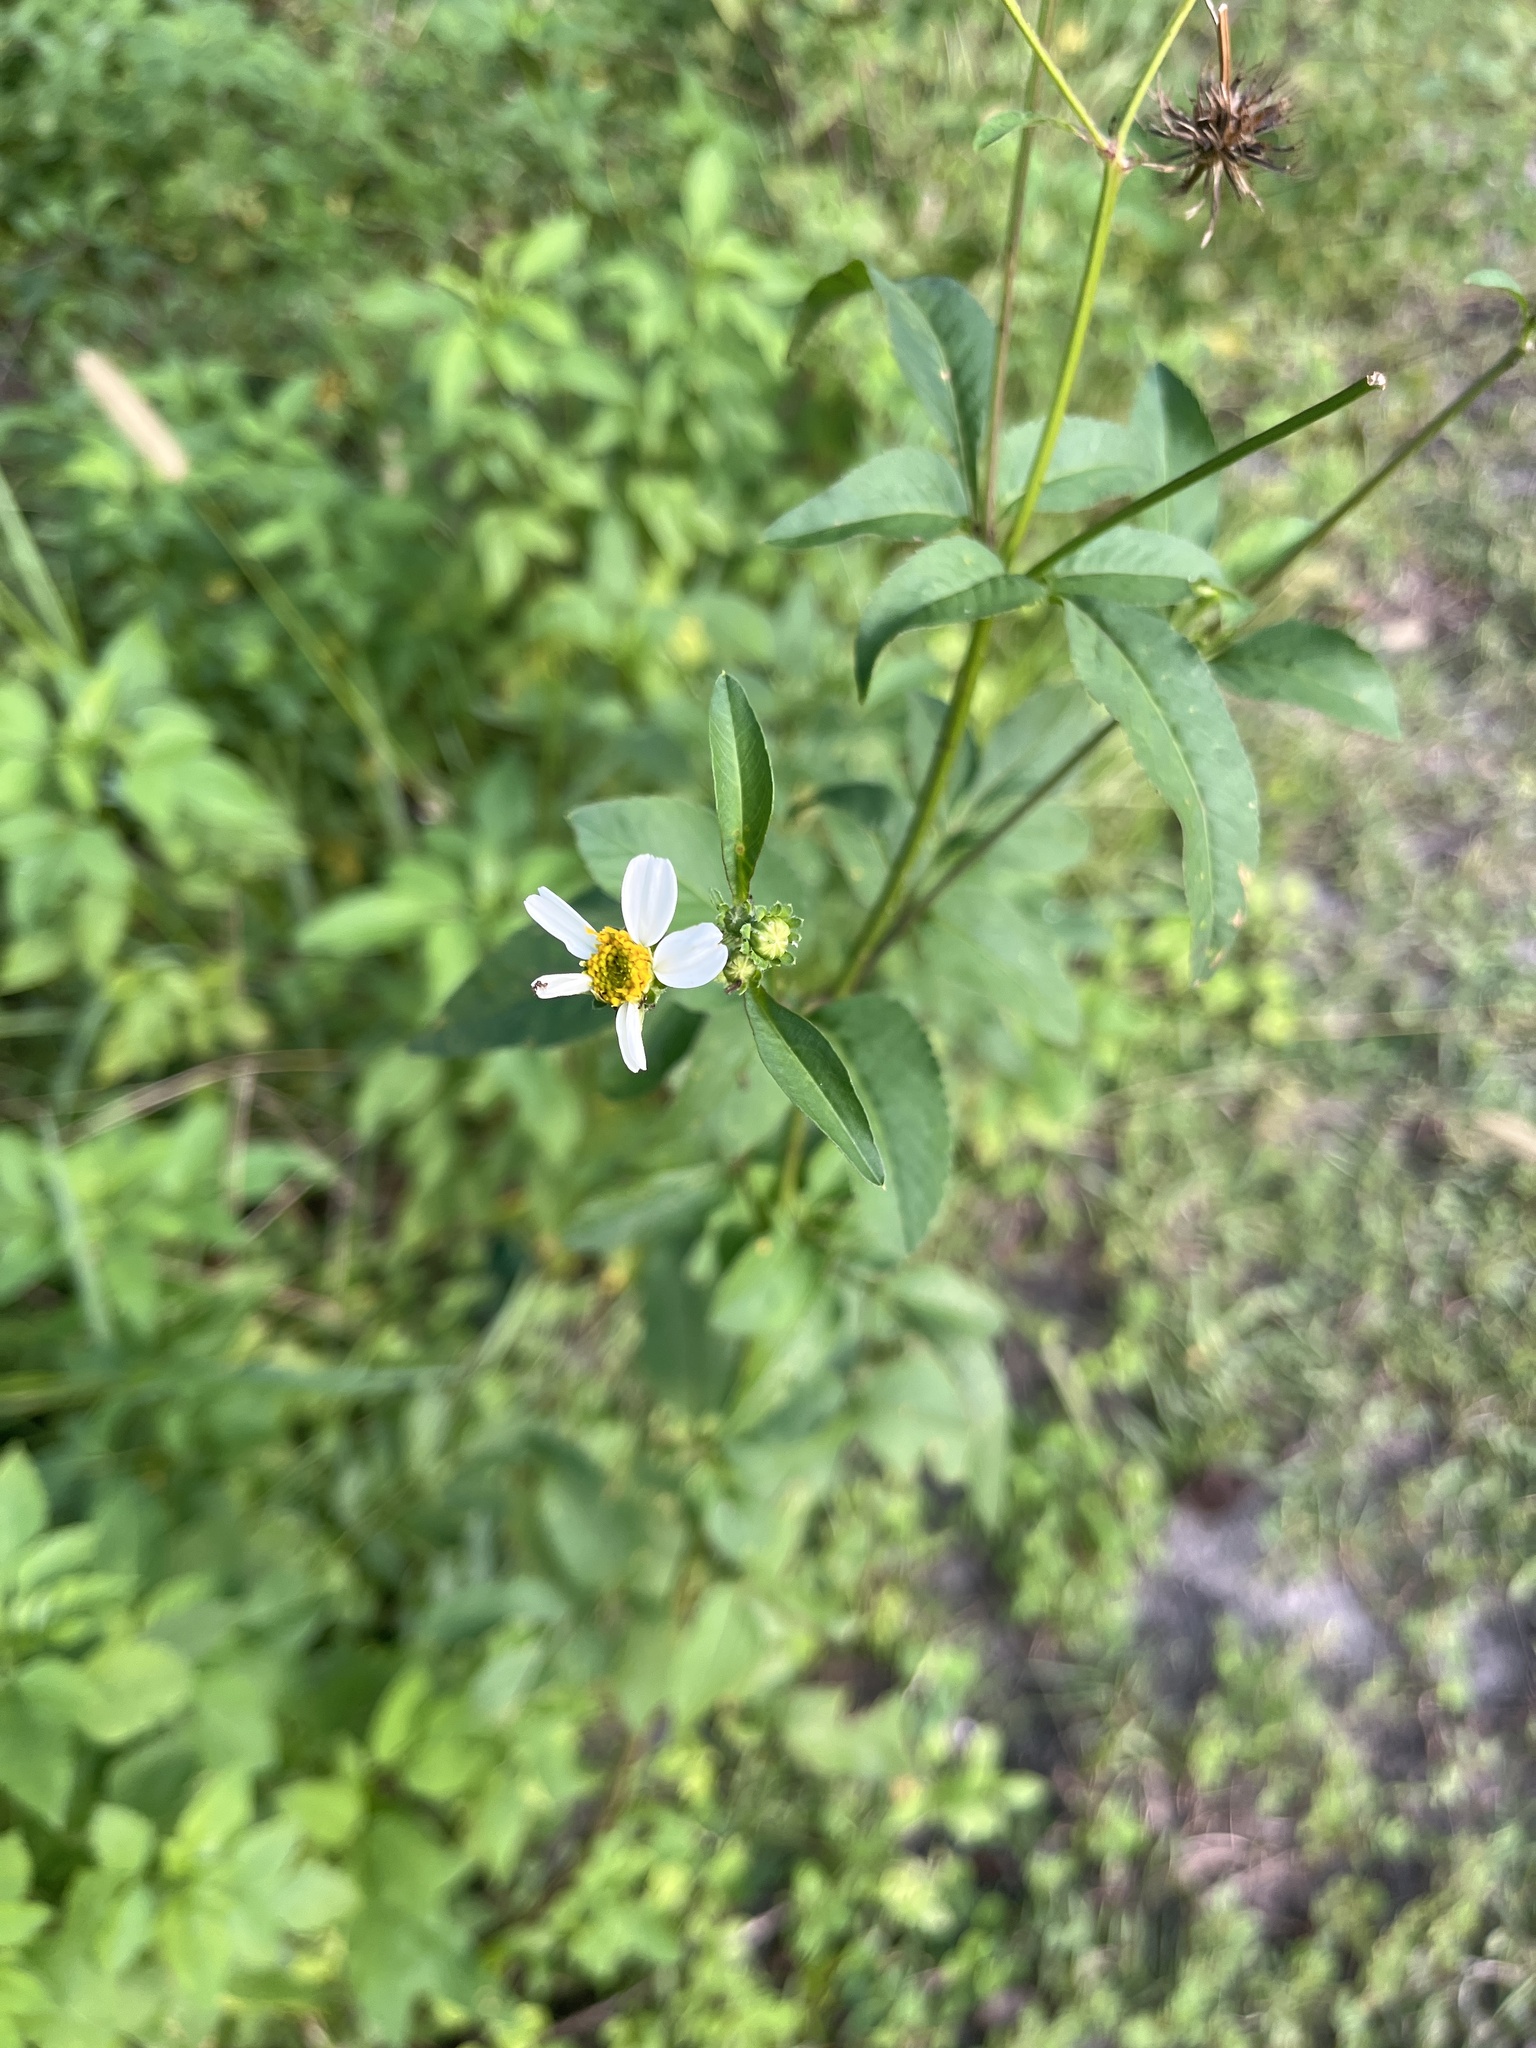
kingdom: Plantae
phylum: Tracheophyta
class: Magnoliopsida
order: Asterales
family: Asteraceae
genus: Bidens
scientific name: Bidens alba
